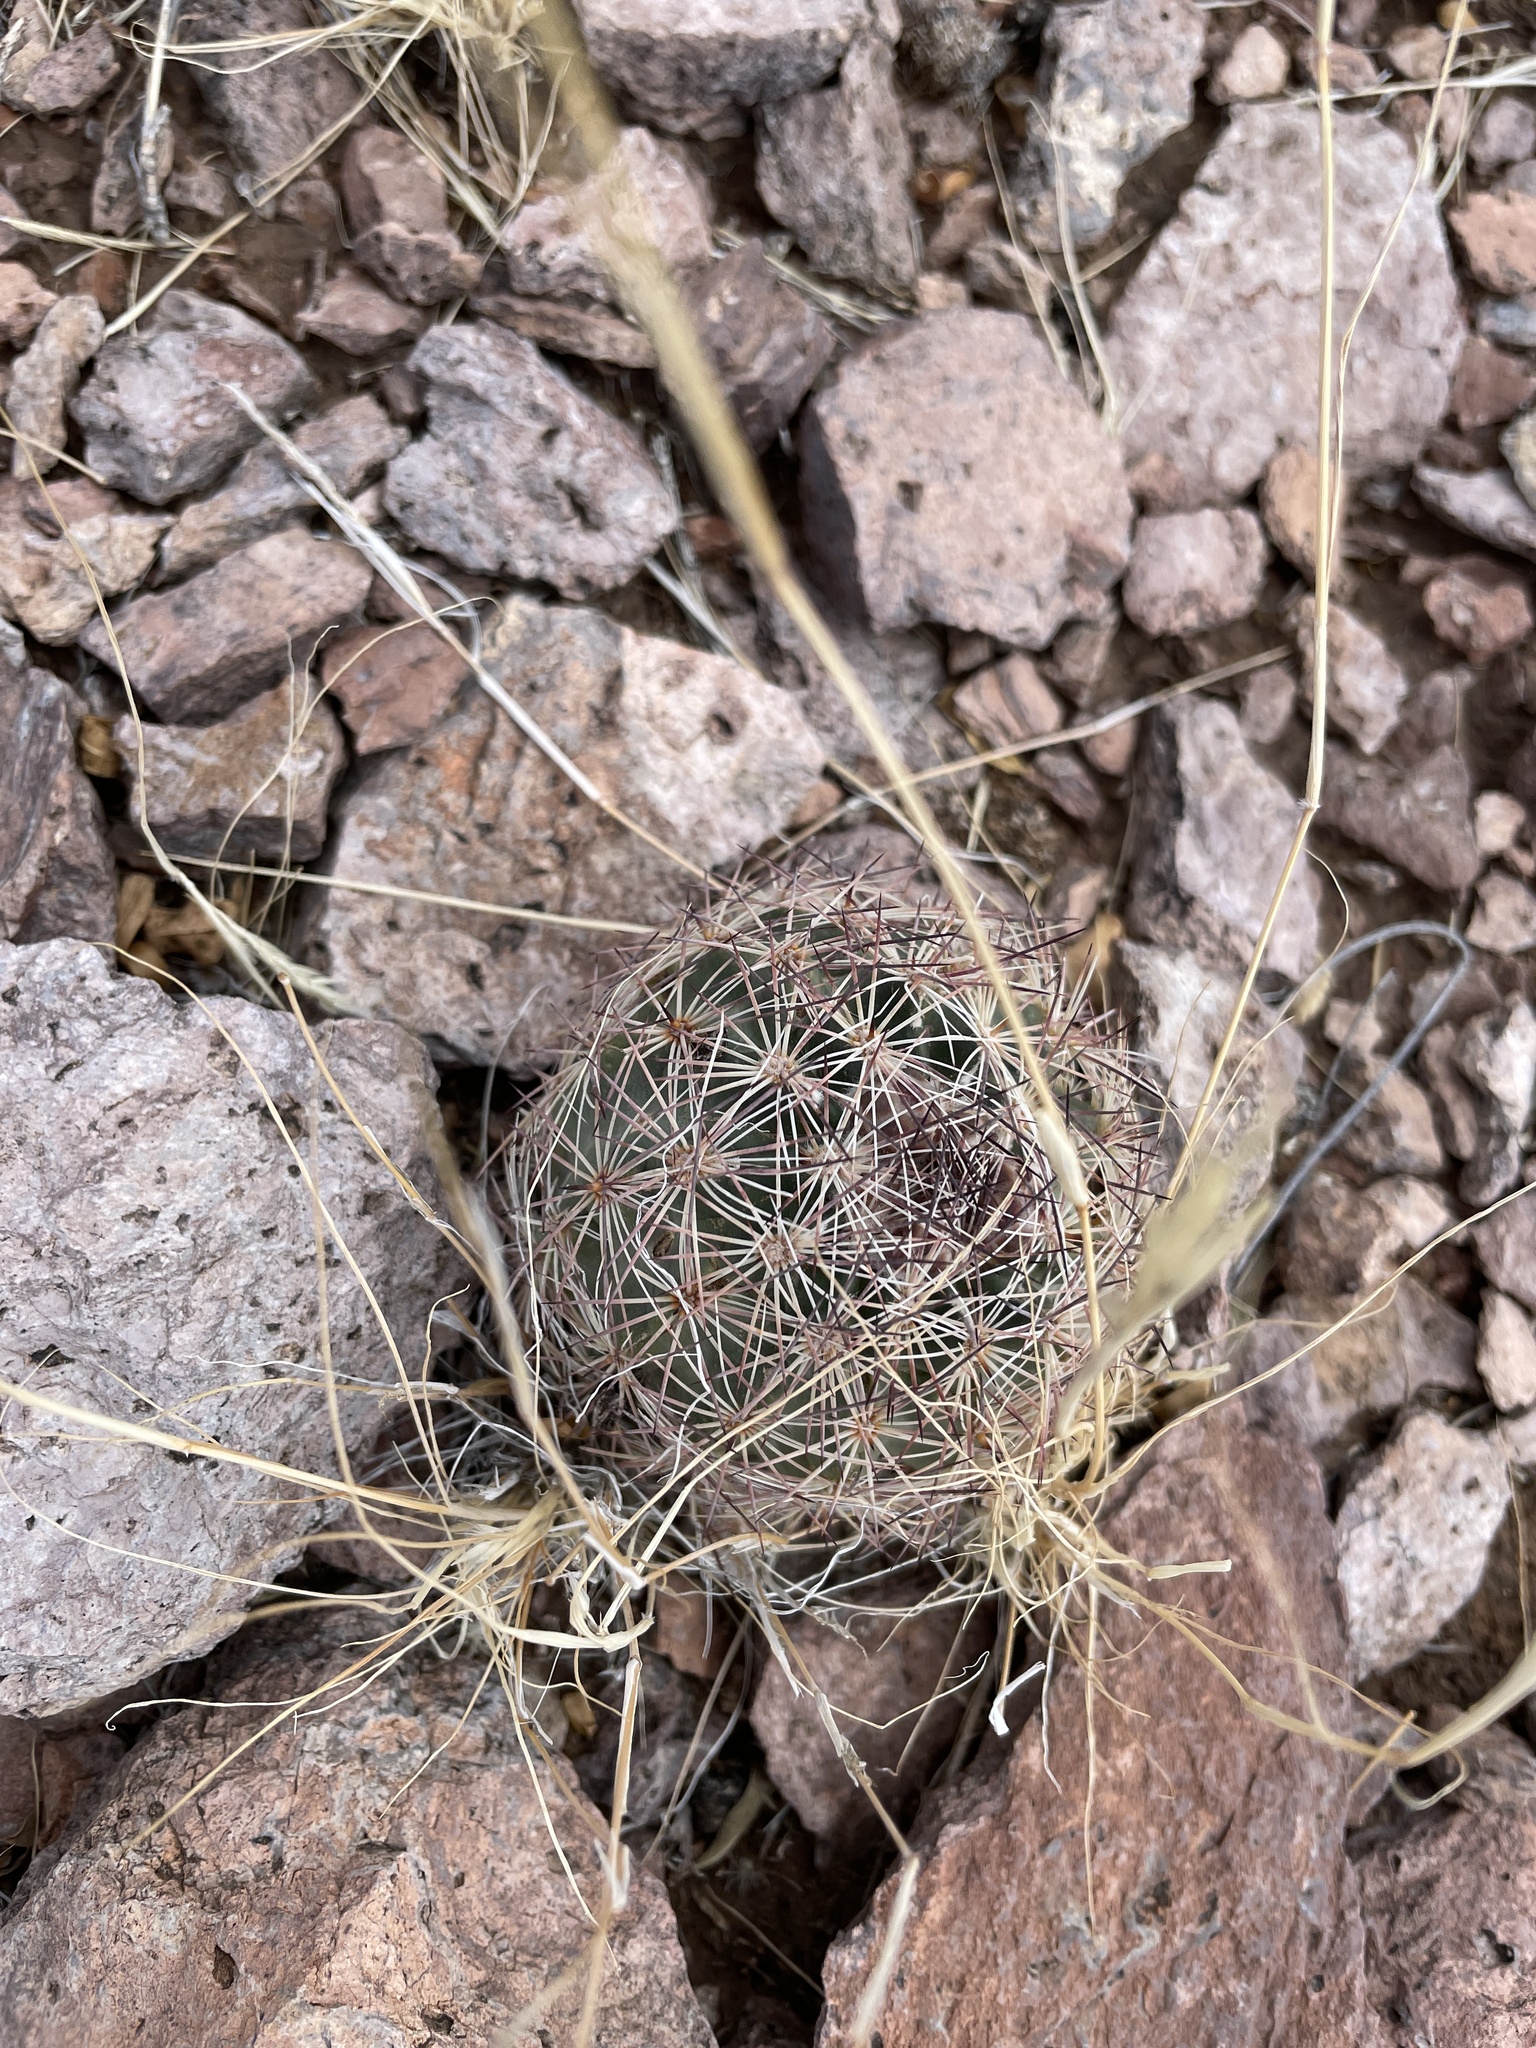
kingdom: Plantae
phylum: Tracheophyta
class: Magnoliopsida
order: Caryophyllales
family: Cactaceae
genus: Sclerocactus
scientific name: Sclerocactus intertextus
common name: White fish-hook cactus
